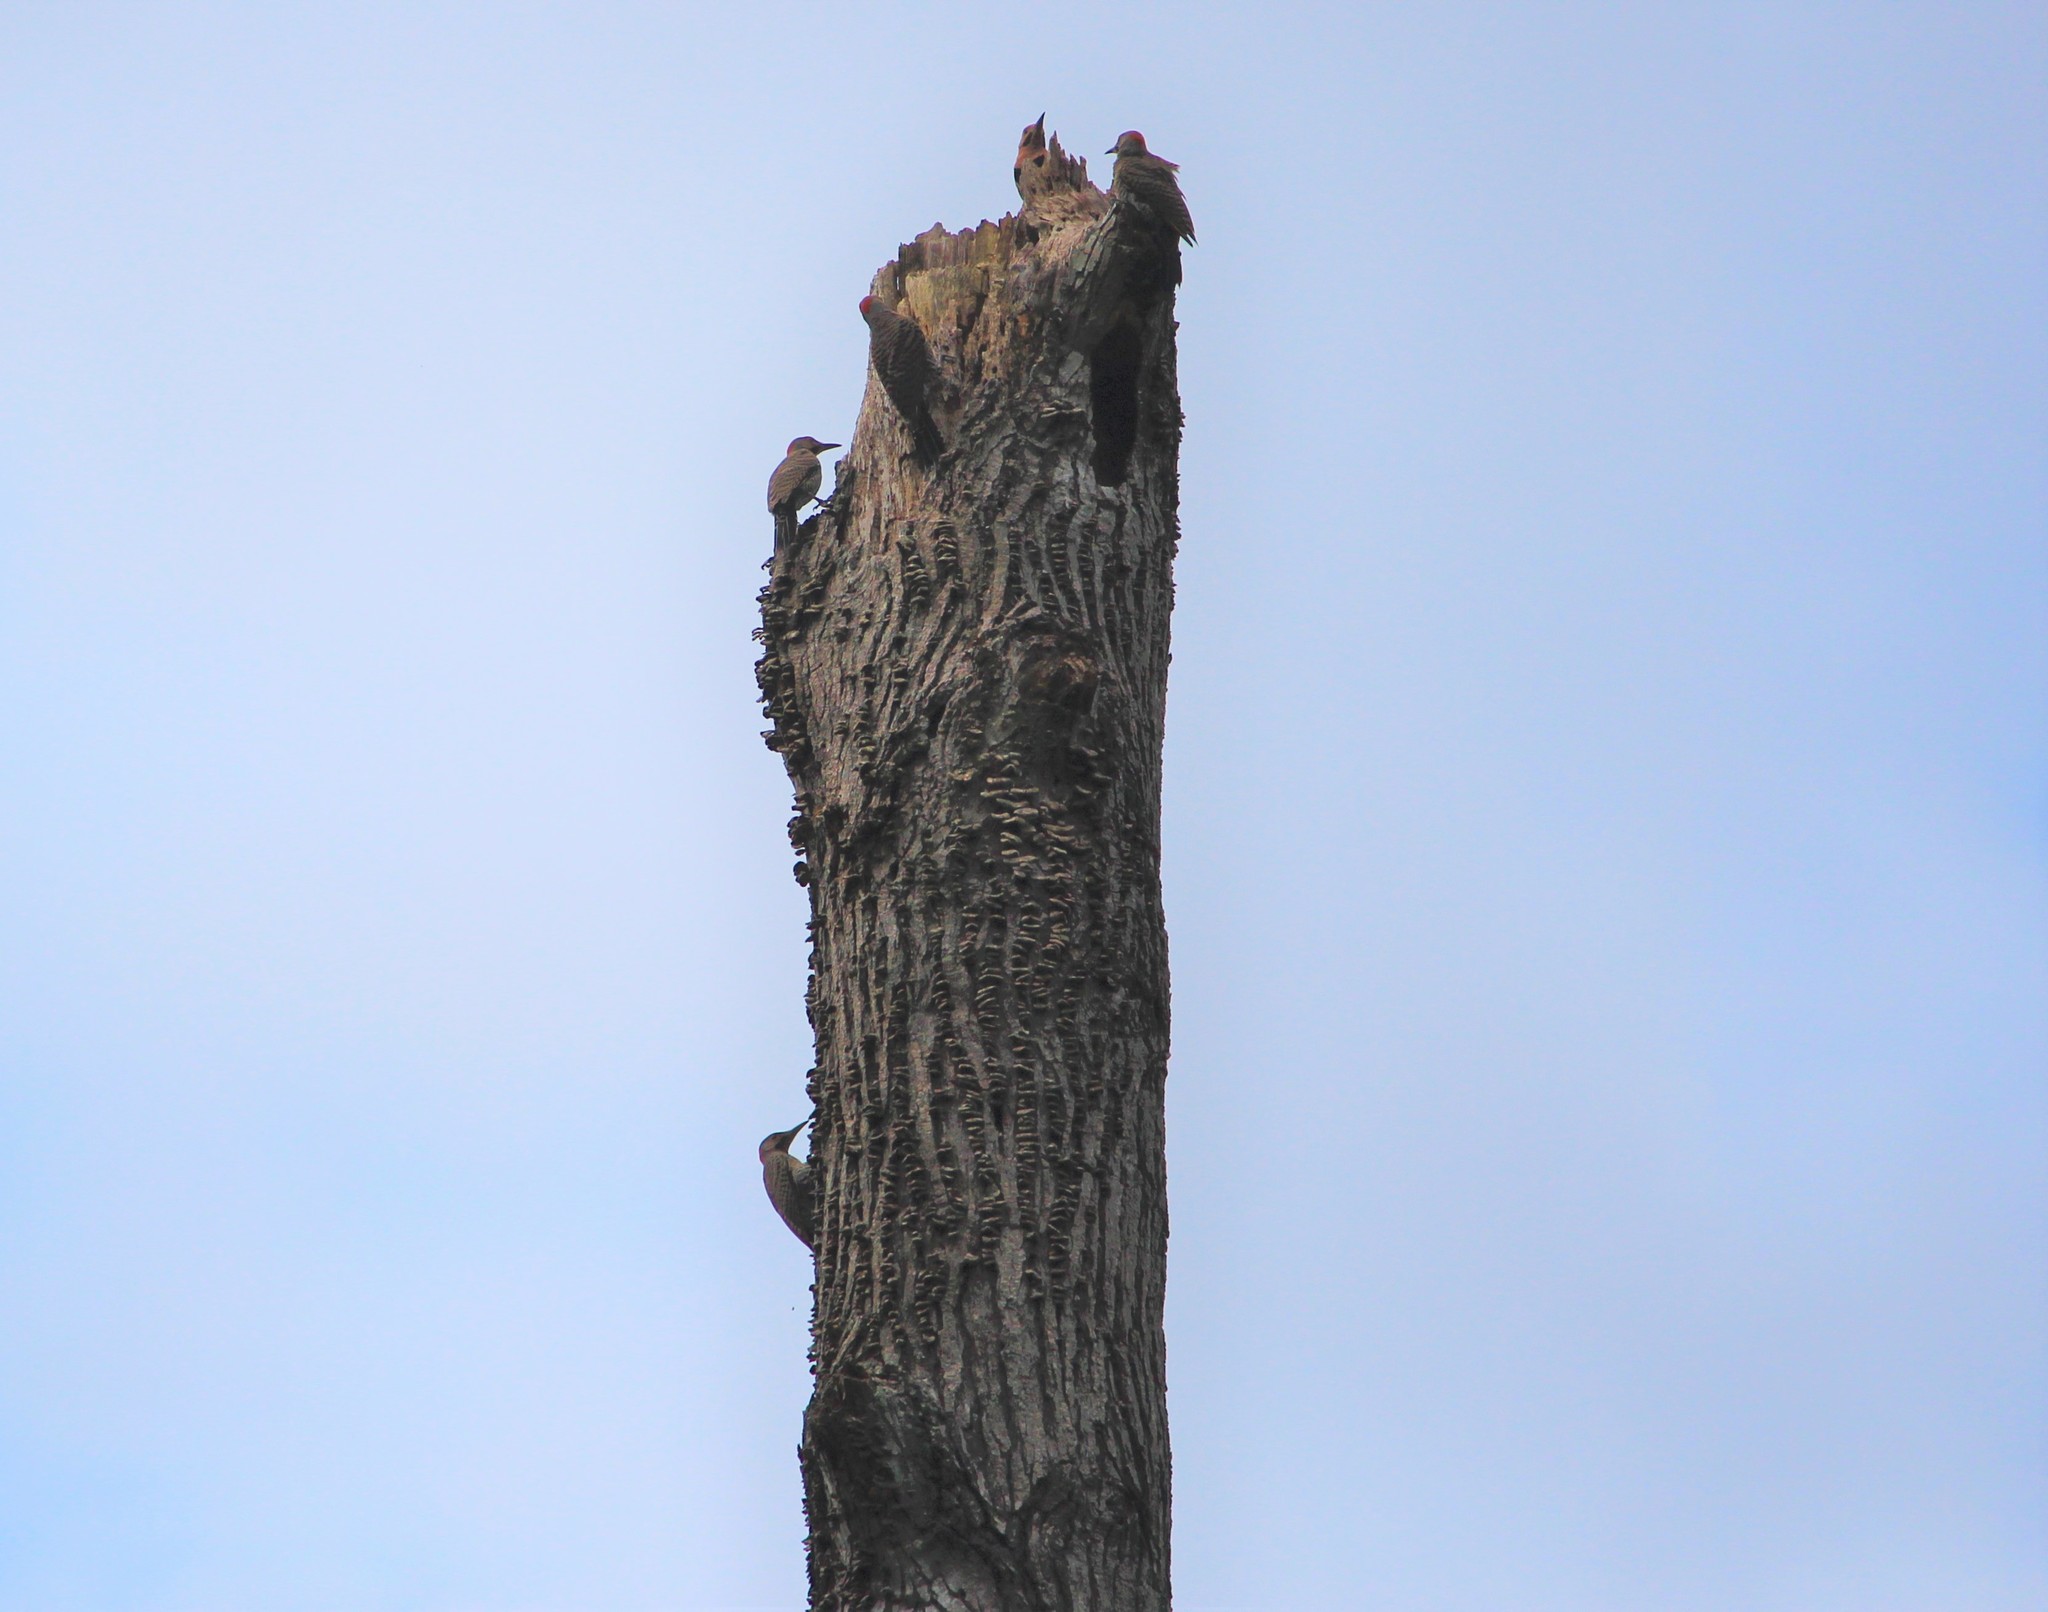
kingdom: Animalia
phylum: Chordata
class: Aves
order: Piciformes
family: Picidae
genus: Colaptes
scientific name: Colaptes auratus
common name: Northern flicker
